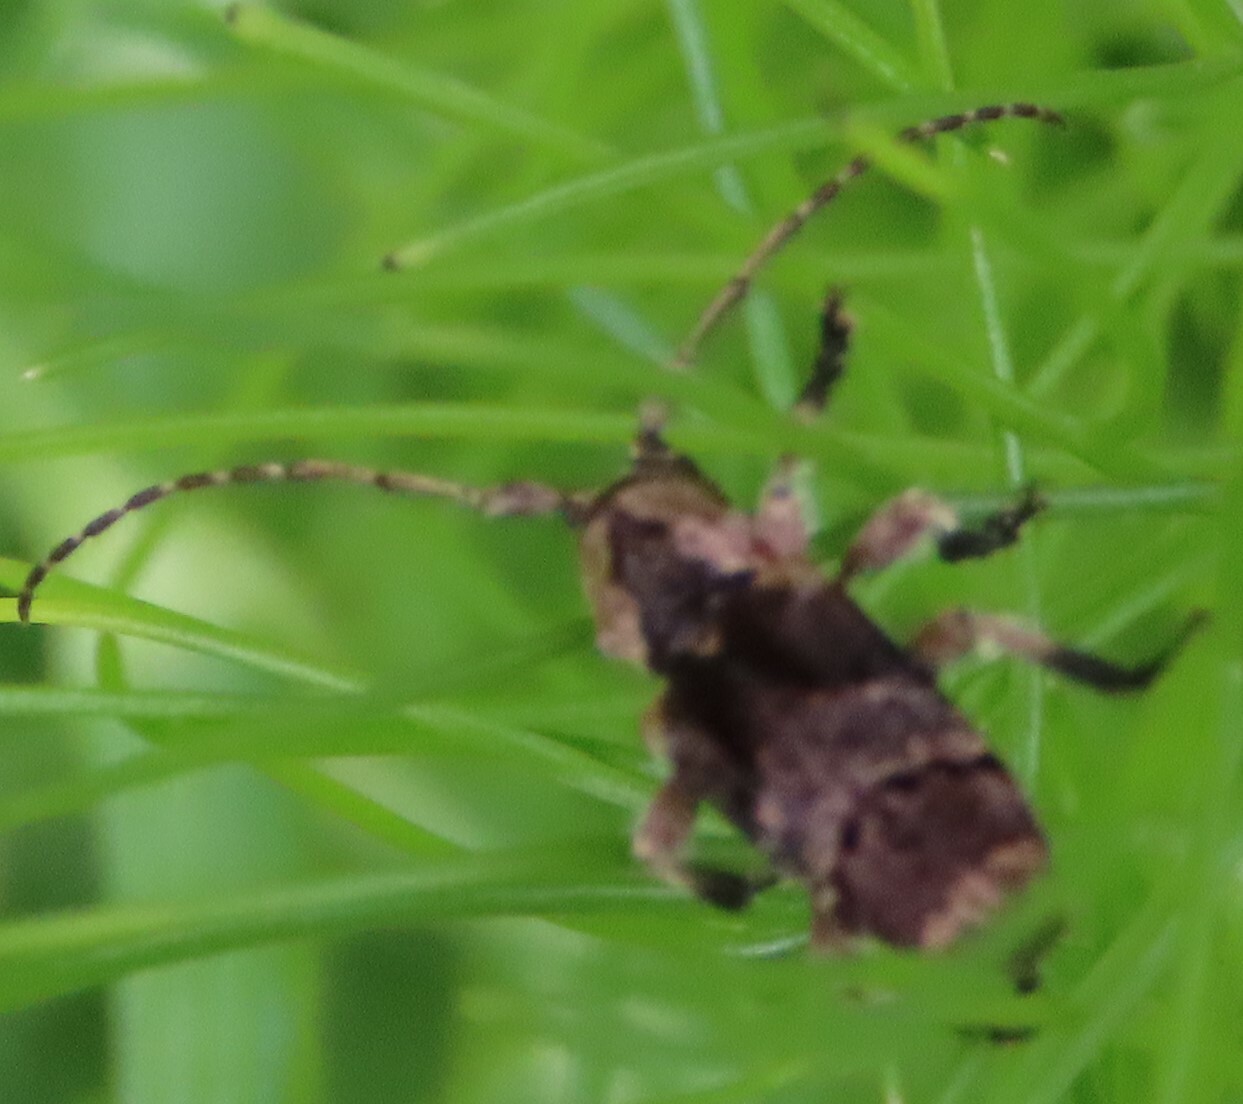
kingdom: Animalia
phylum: Arthropoda
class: Insecta
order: Coleoptera
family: Cerambycidae
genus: Hybolasius
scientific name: Hybolasius cristus
